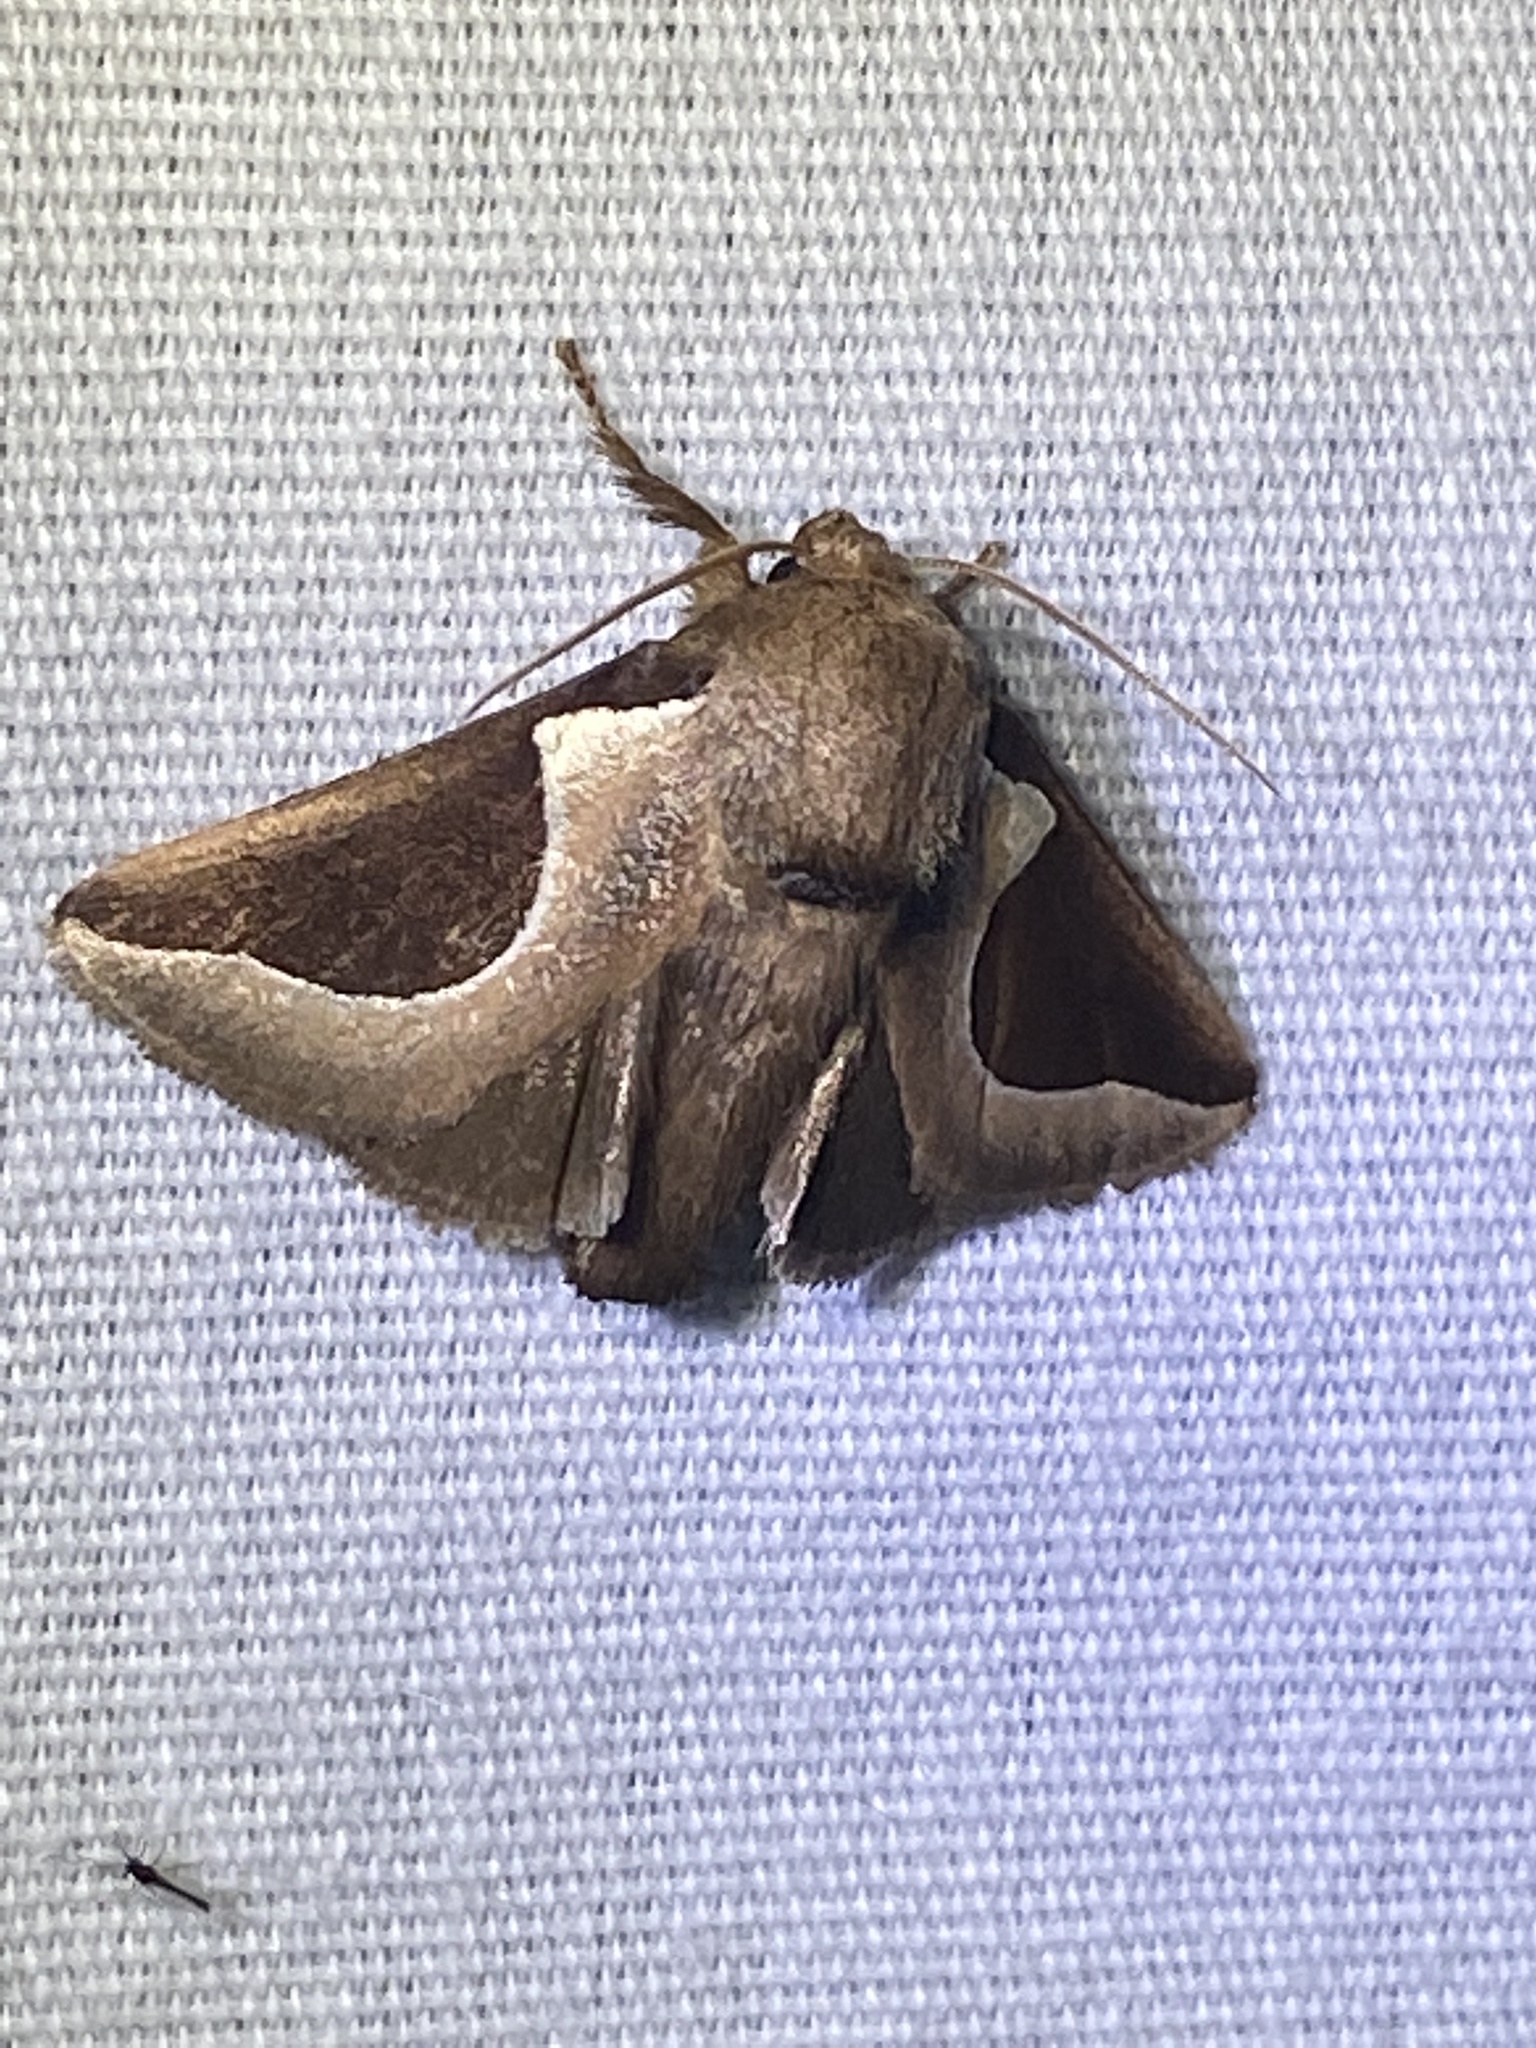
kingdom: Animalia
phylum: Arthropoda
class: Insecta
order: Lepidoptera
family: Limacodidae
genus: Prolimacodes
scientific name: Prolimacodes badia
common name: Skiff moth
